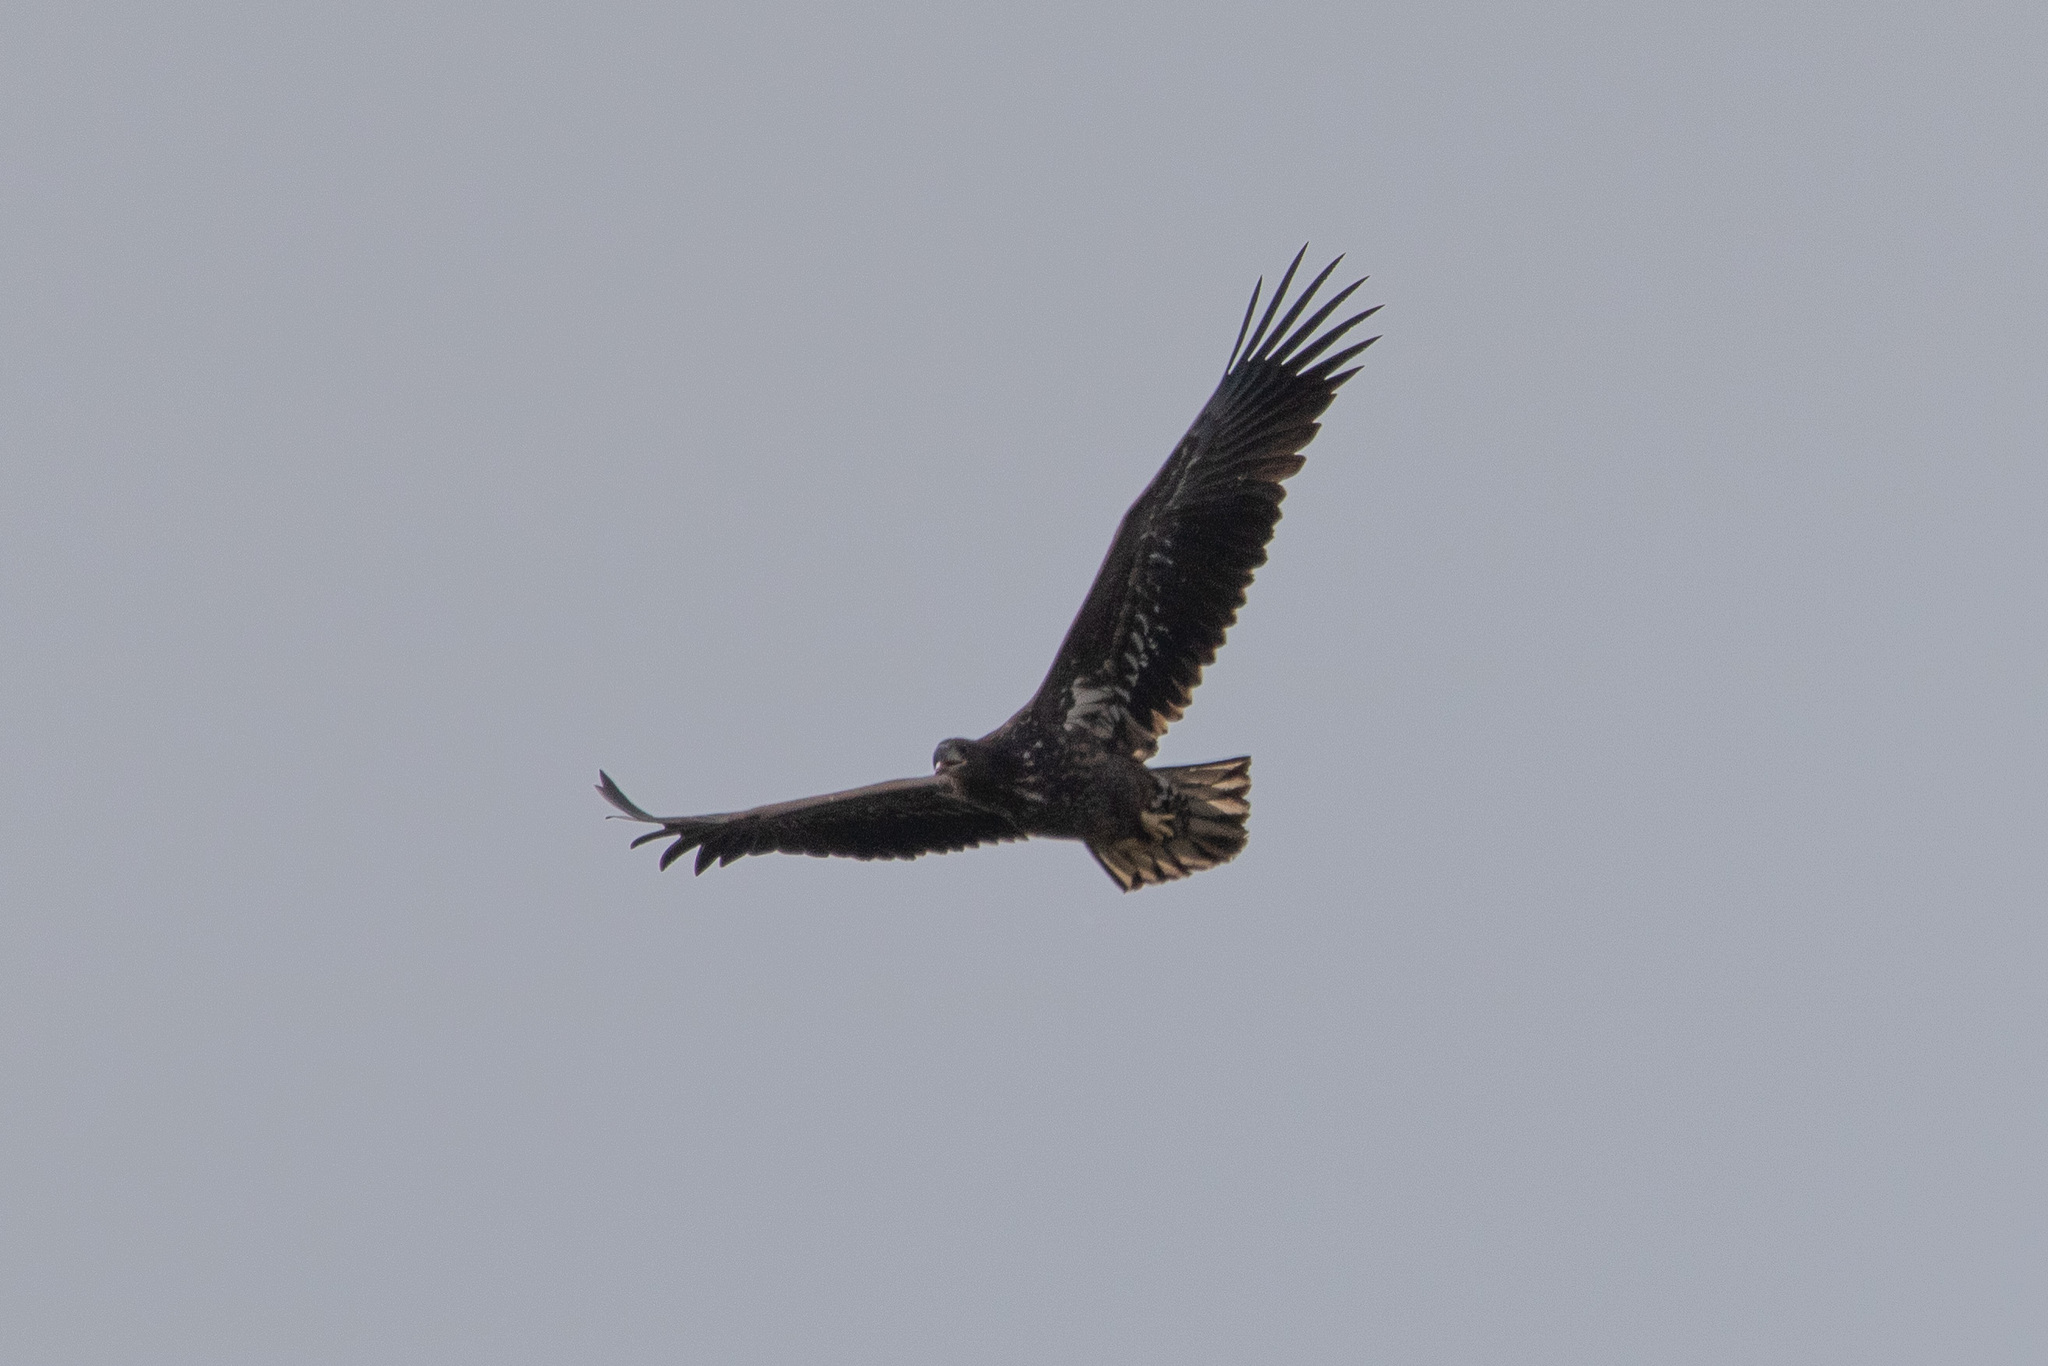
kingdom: Animalia
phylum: Chordata
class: Aves
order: Accipitriformes
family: Accipitridae
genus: Haliaeetus
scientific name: Haliaeetus albicilla
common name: White-tailed eagle
